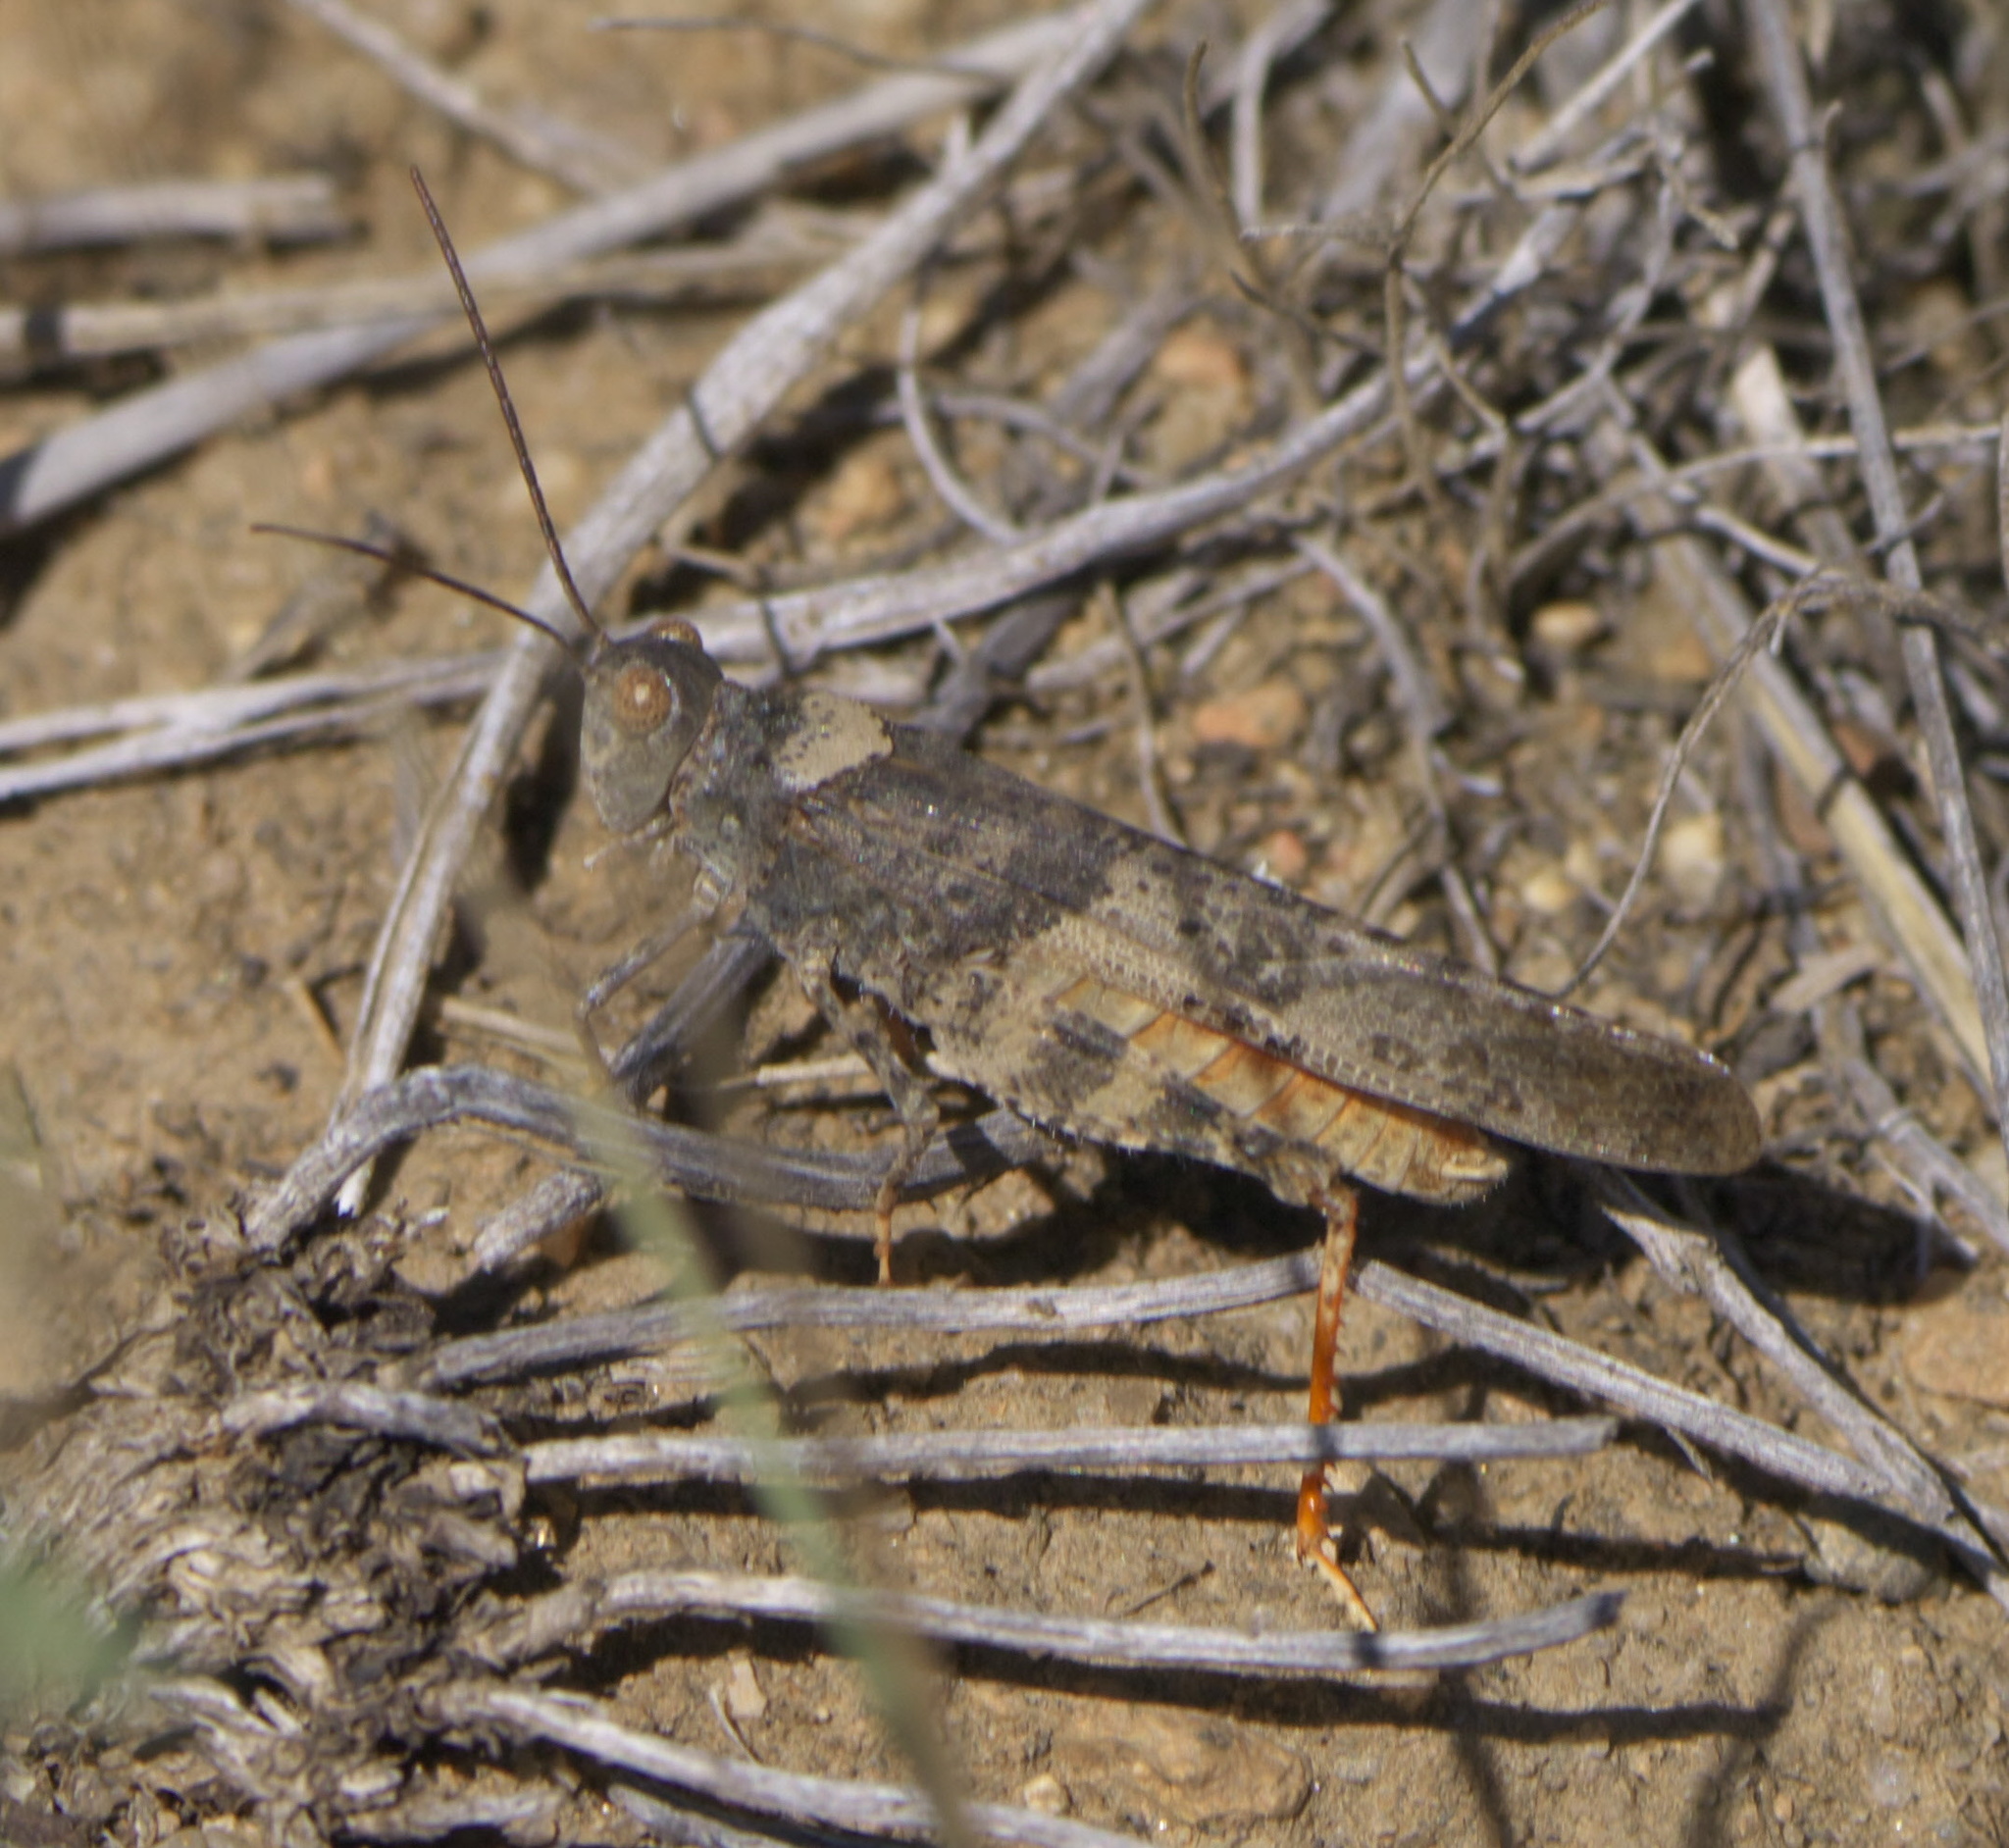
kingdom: Animalia
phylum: Arthropoda
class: Insecta
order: Orthoptera
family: Acrididae
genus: Trimerotropis
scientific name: Trimerotropis latifasciata
